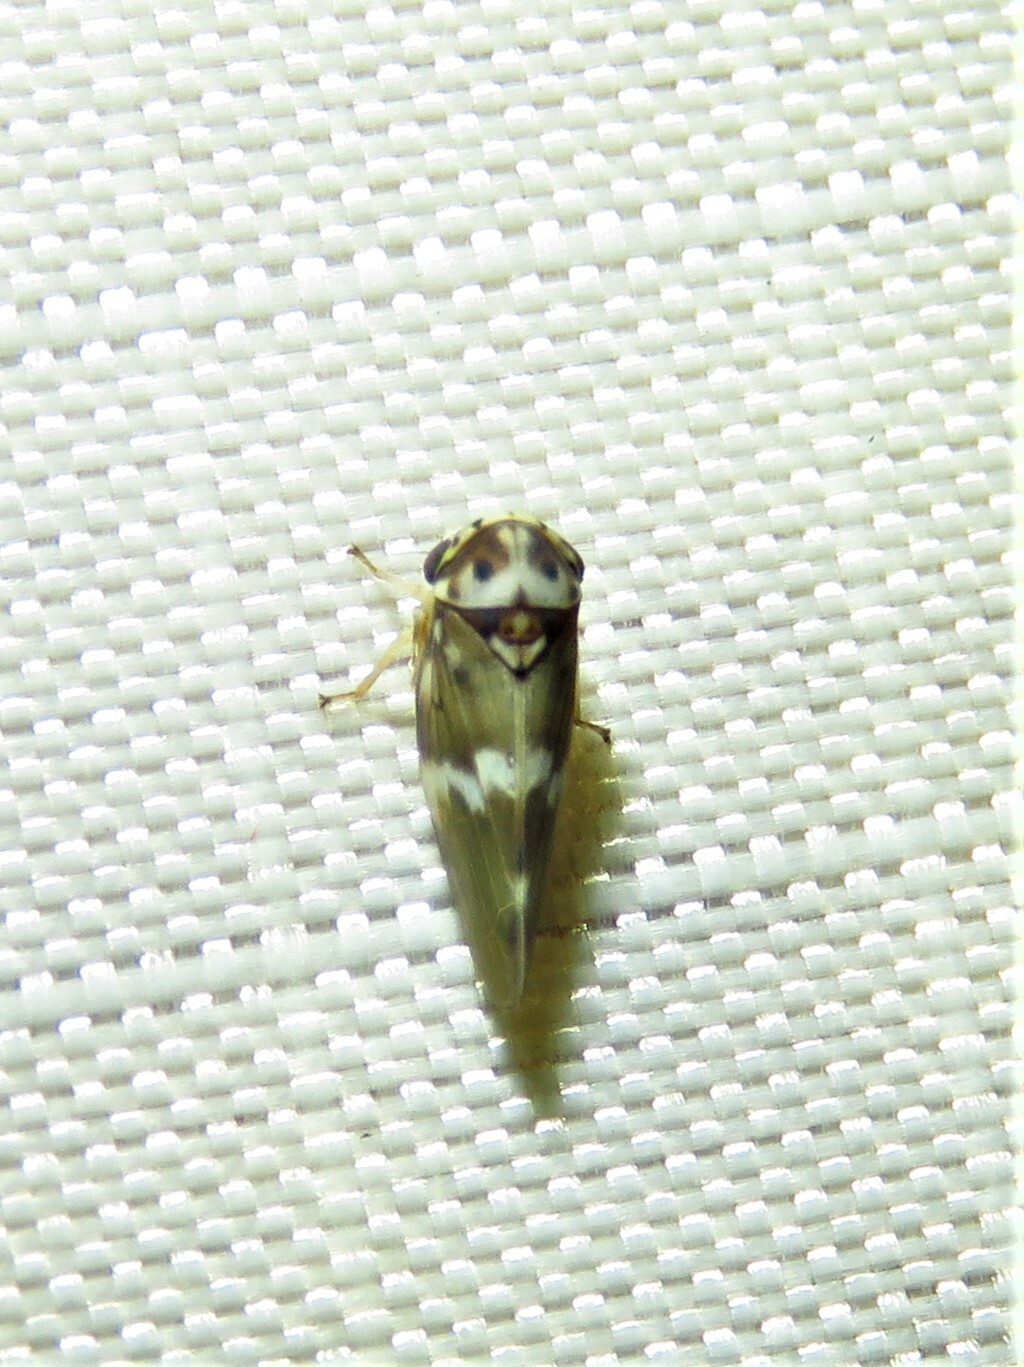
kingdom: Animalia
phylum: Arthropoda
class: Insecta
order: Hemiptera
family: Cicadellidae
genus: Agalliopsis
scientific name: Agalliopsis cervina
